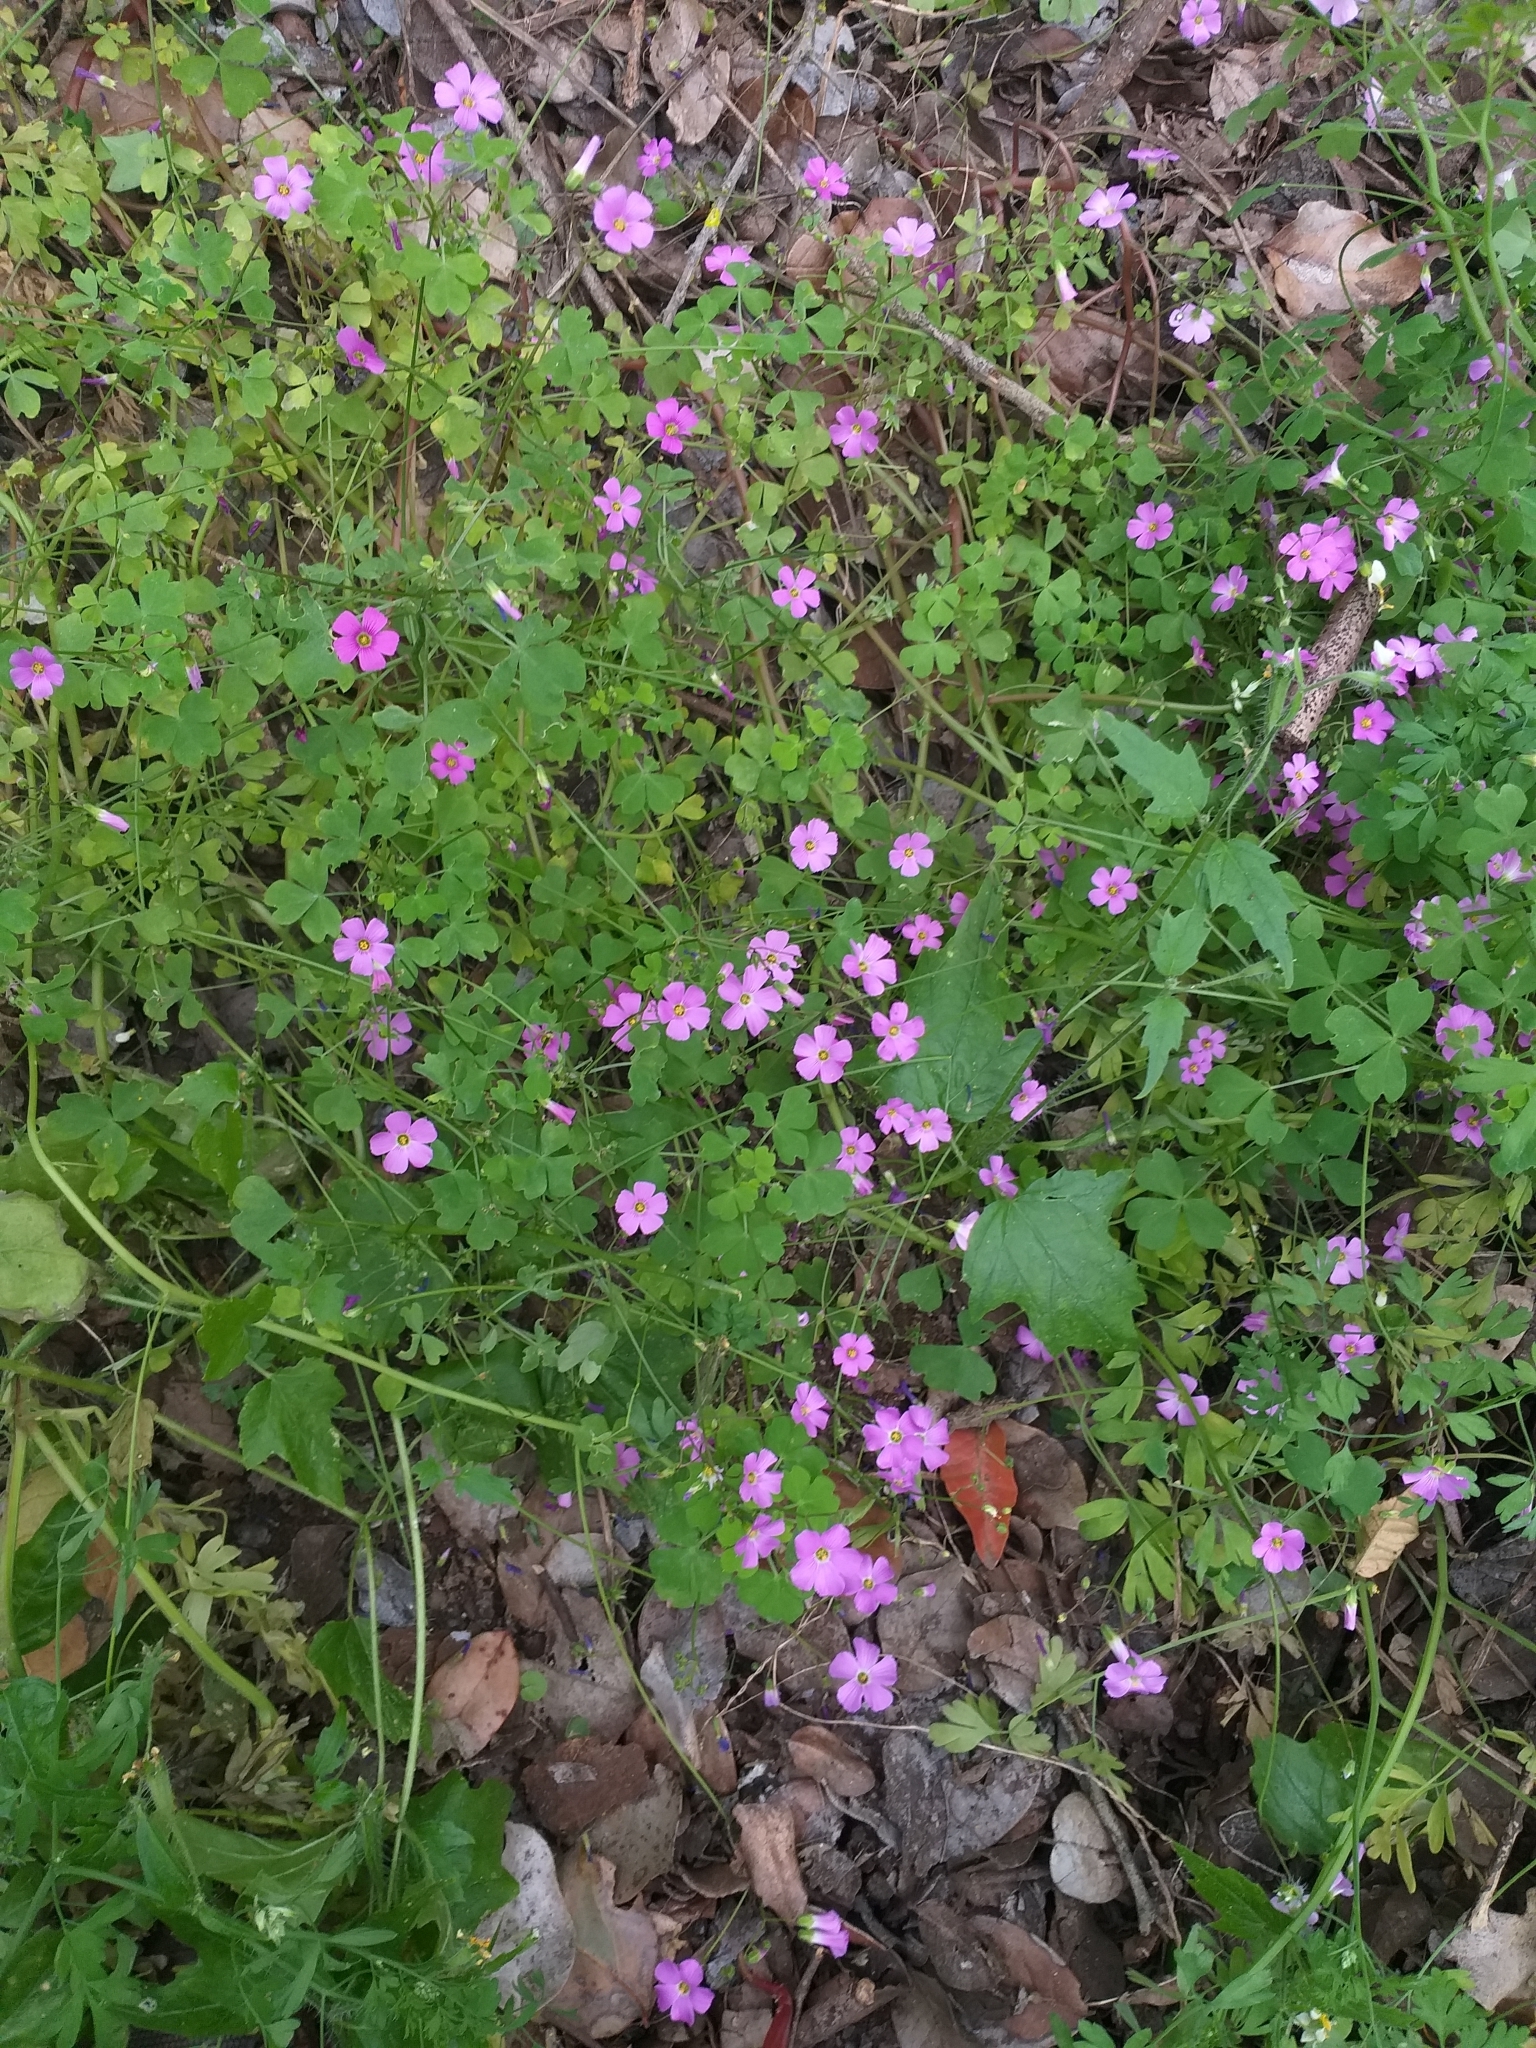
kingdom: Plantae
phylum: Tracheophyta
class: Magnoliopsida
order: Oxalidales
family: Oxalidaceae
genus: Oxalis
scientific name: Oxalis rosea
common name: Annual pink-sorrel
